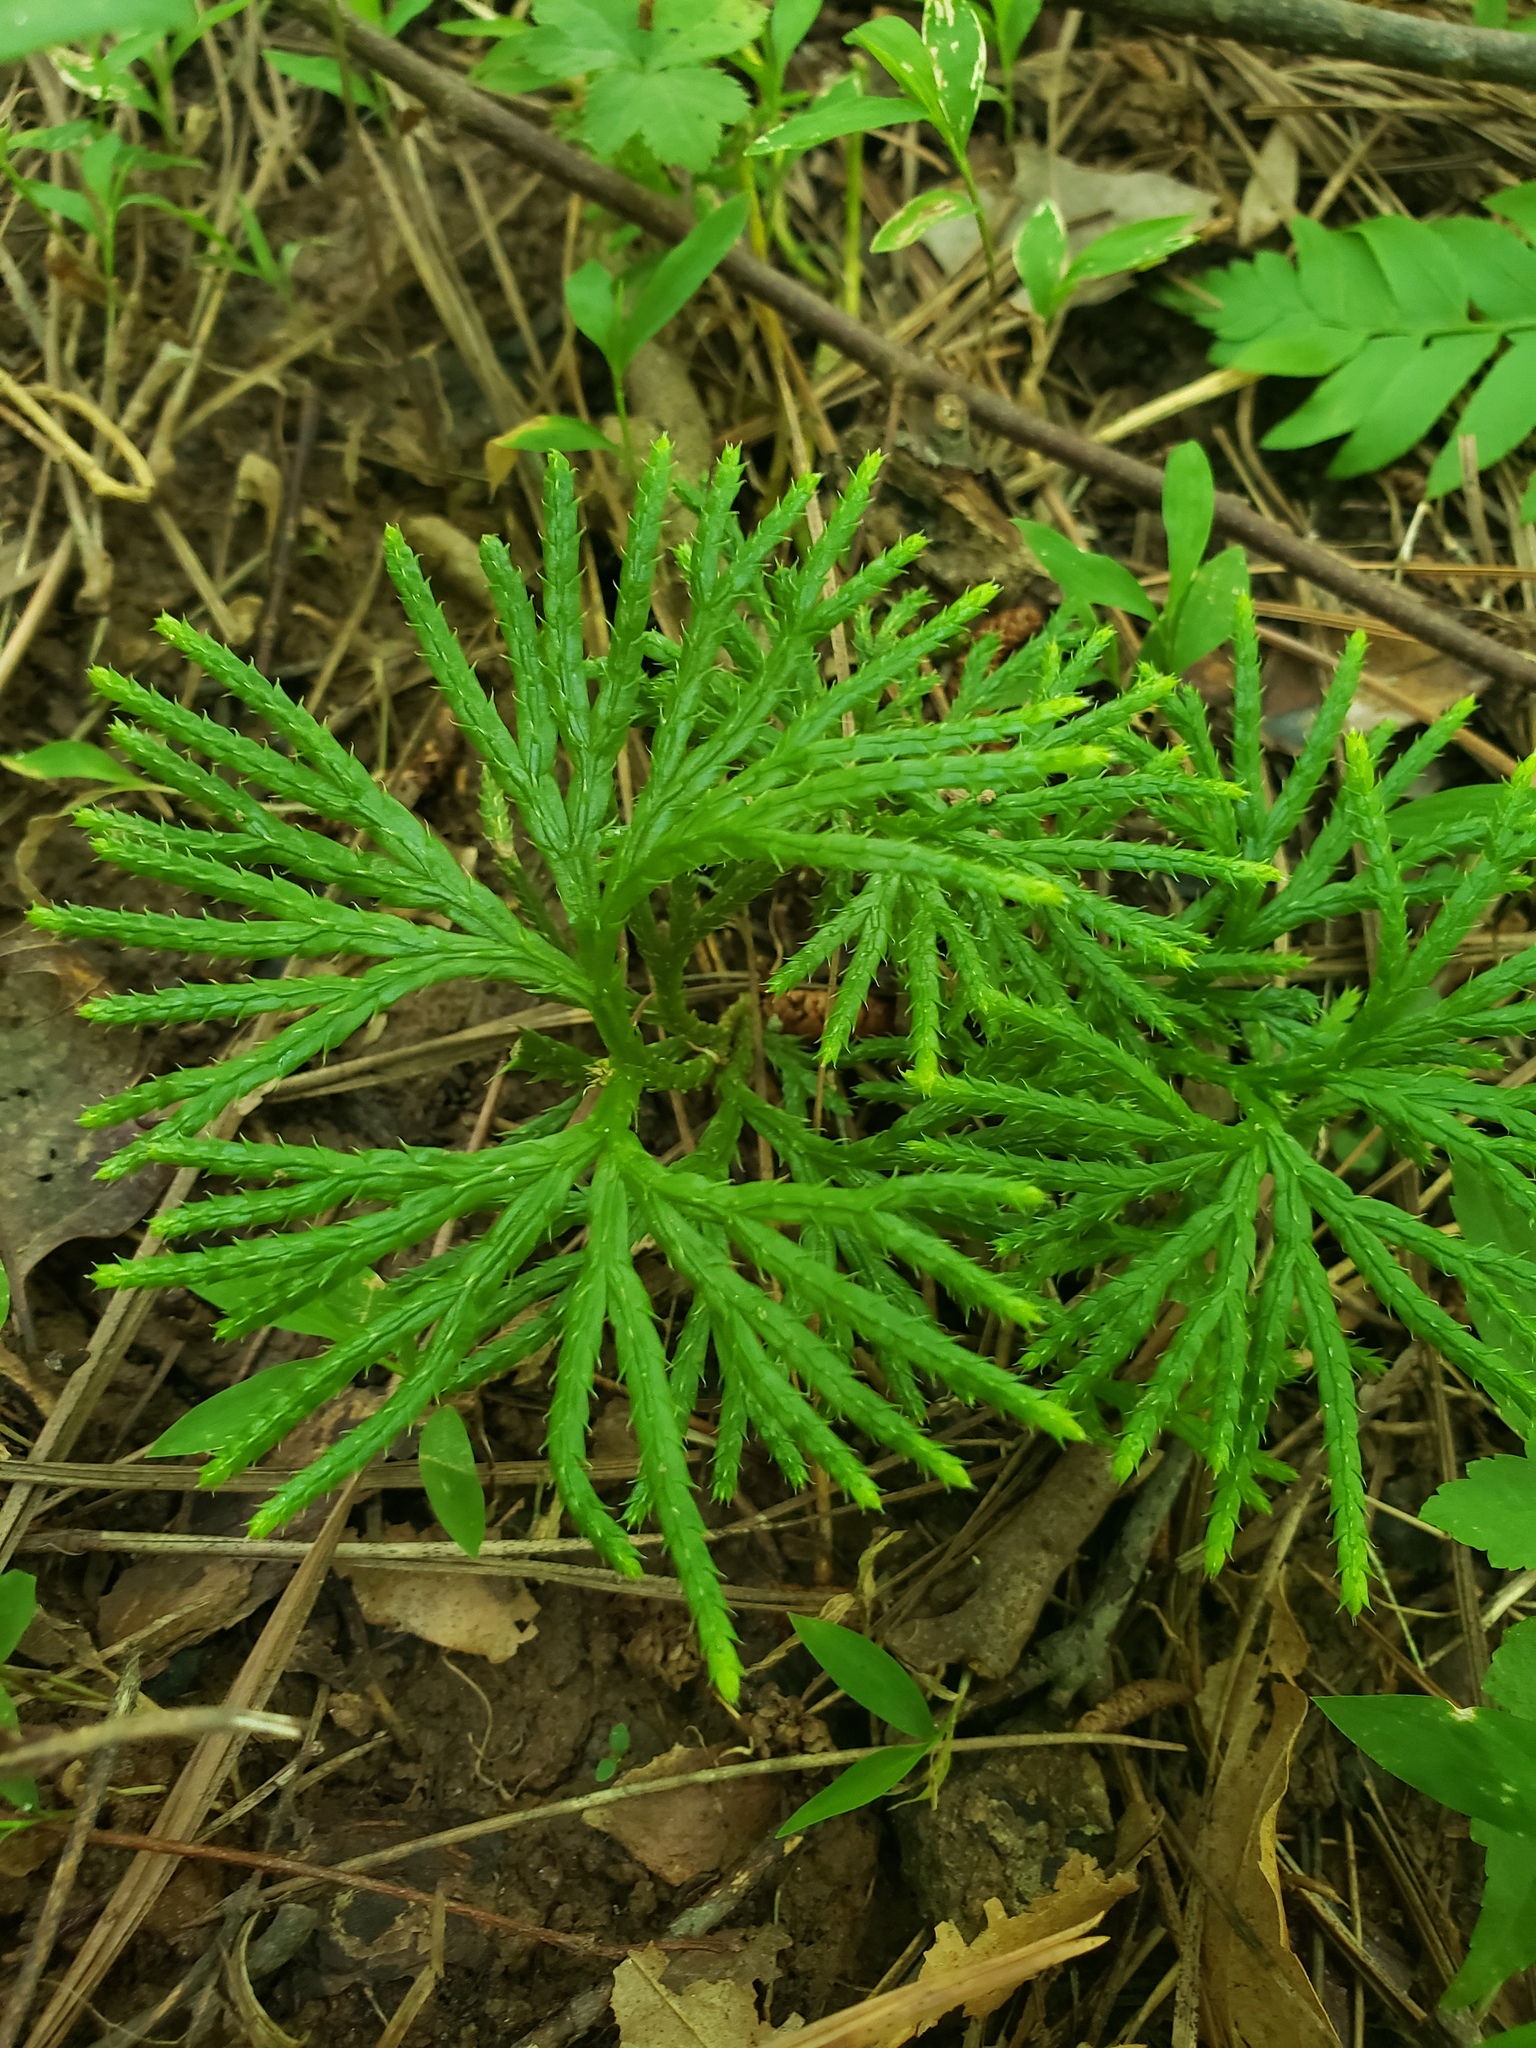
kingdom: Plantae
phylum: Tracheophyta
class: Lycopodiopsida
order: Lycopodiales
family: Lycopodiaceae
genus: Diphasiastrum
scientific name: Diphasiastrum digitatum
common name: Southern running-pine
